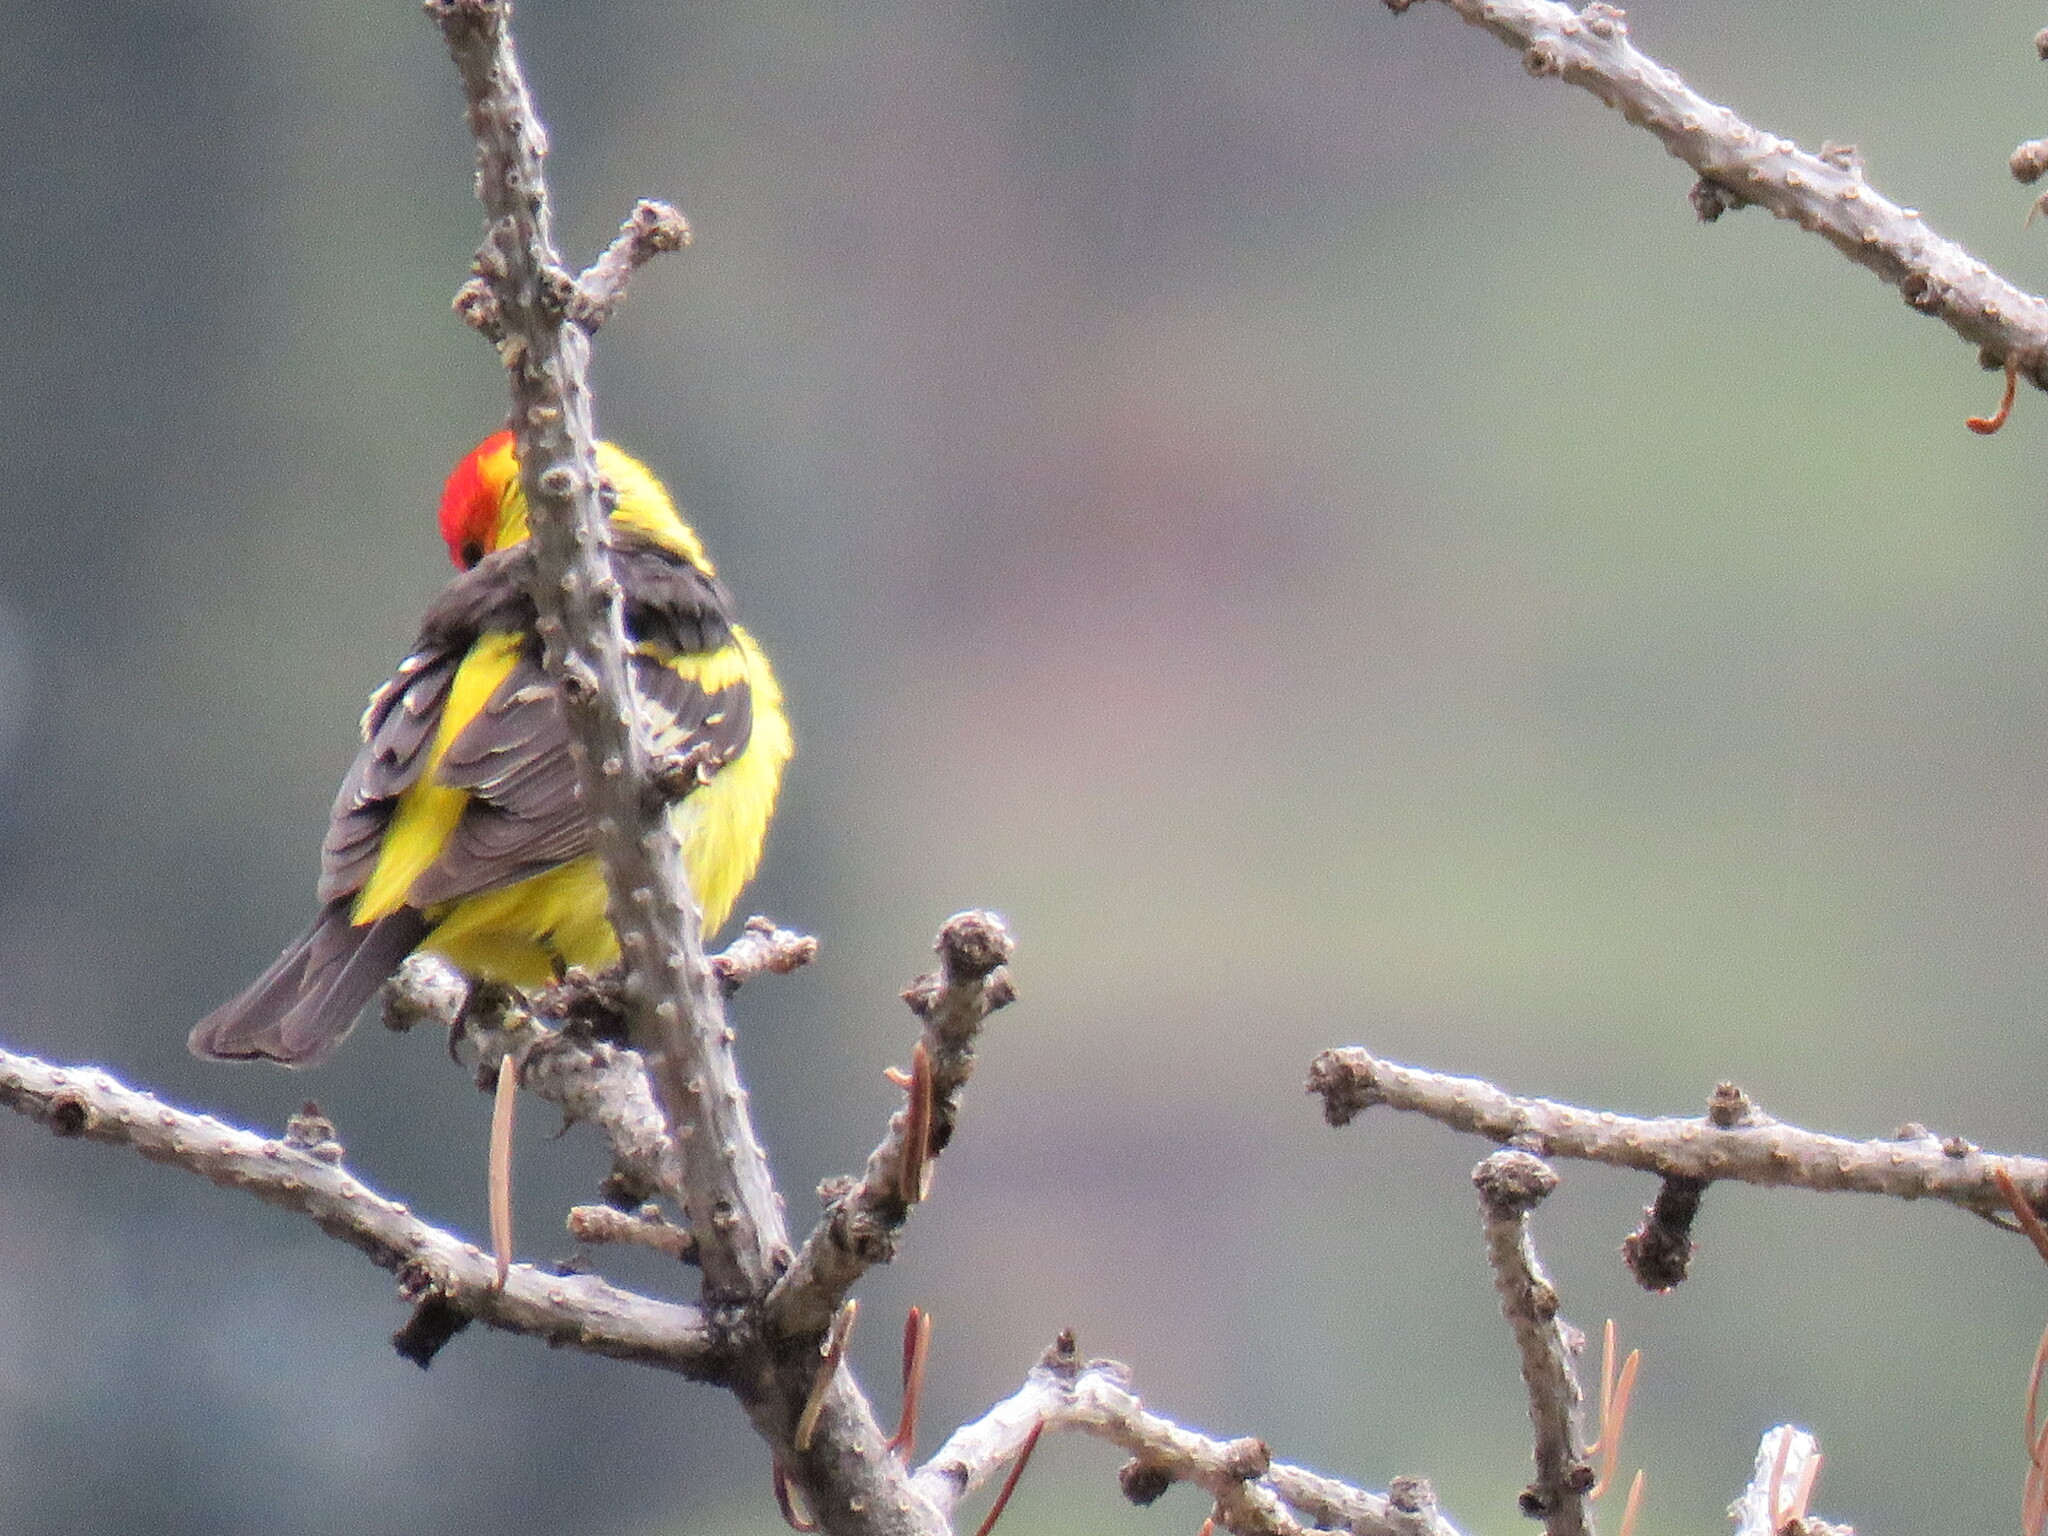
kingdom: Animalia
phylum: Chordata
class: Aves
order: Passeriformes
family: Cardinalidae
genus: Piranga
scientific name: Piranga ludoviciana
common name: Western tanager
